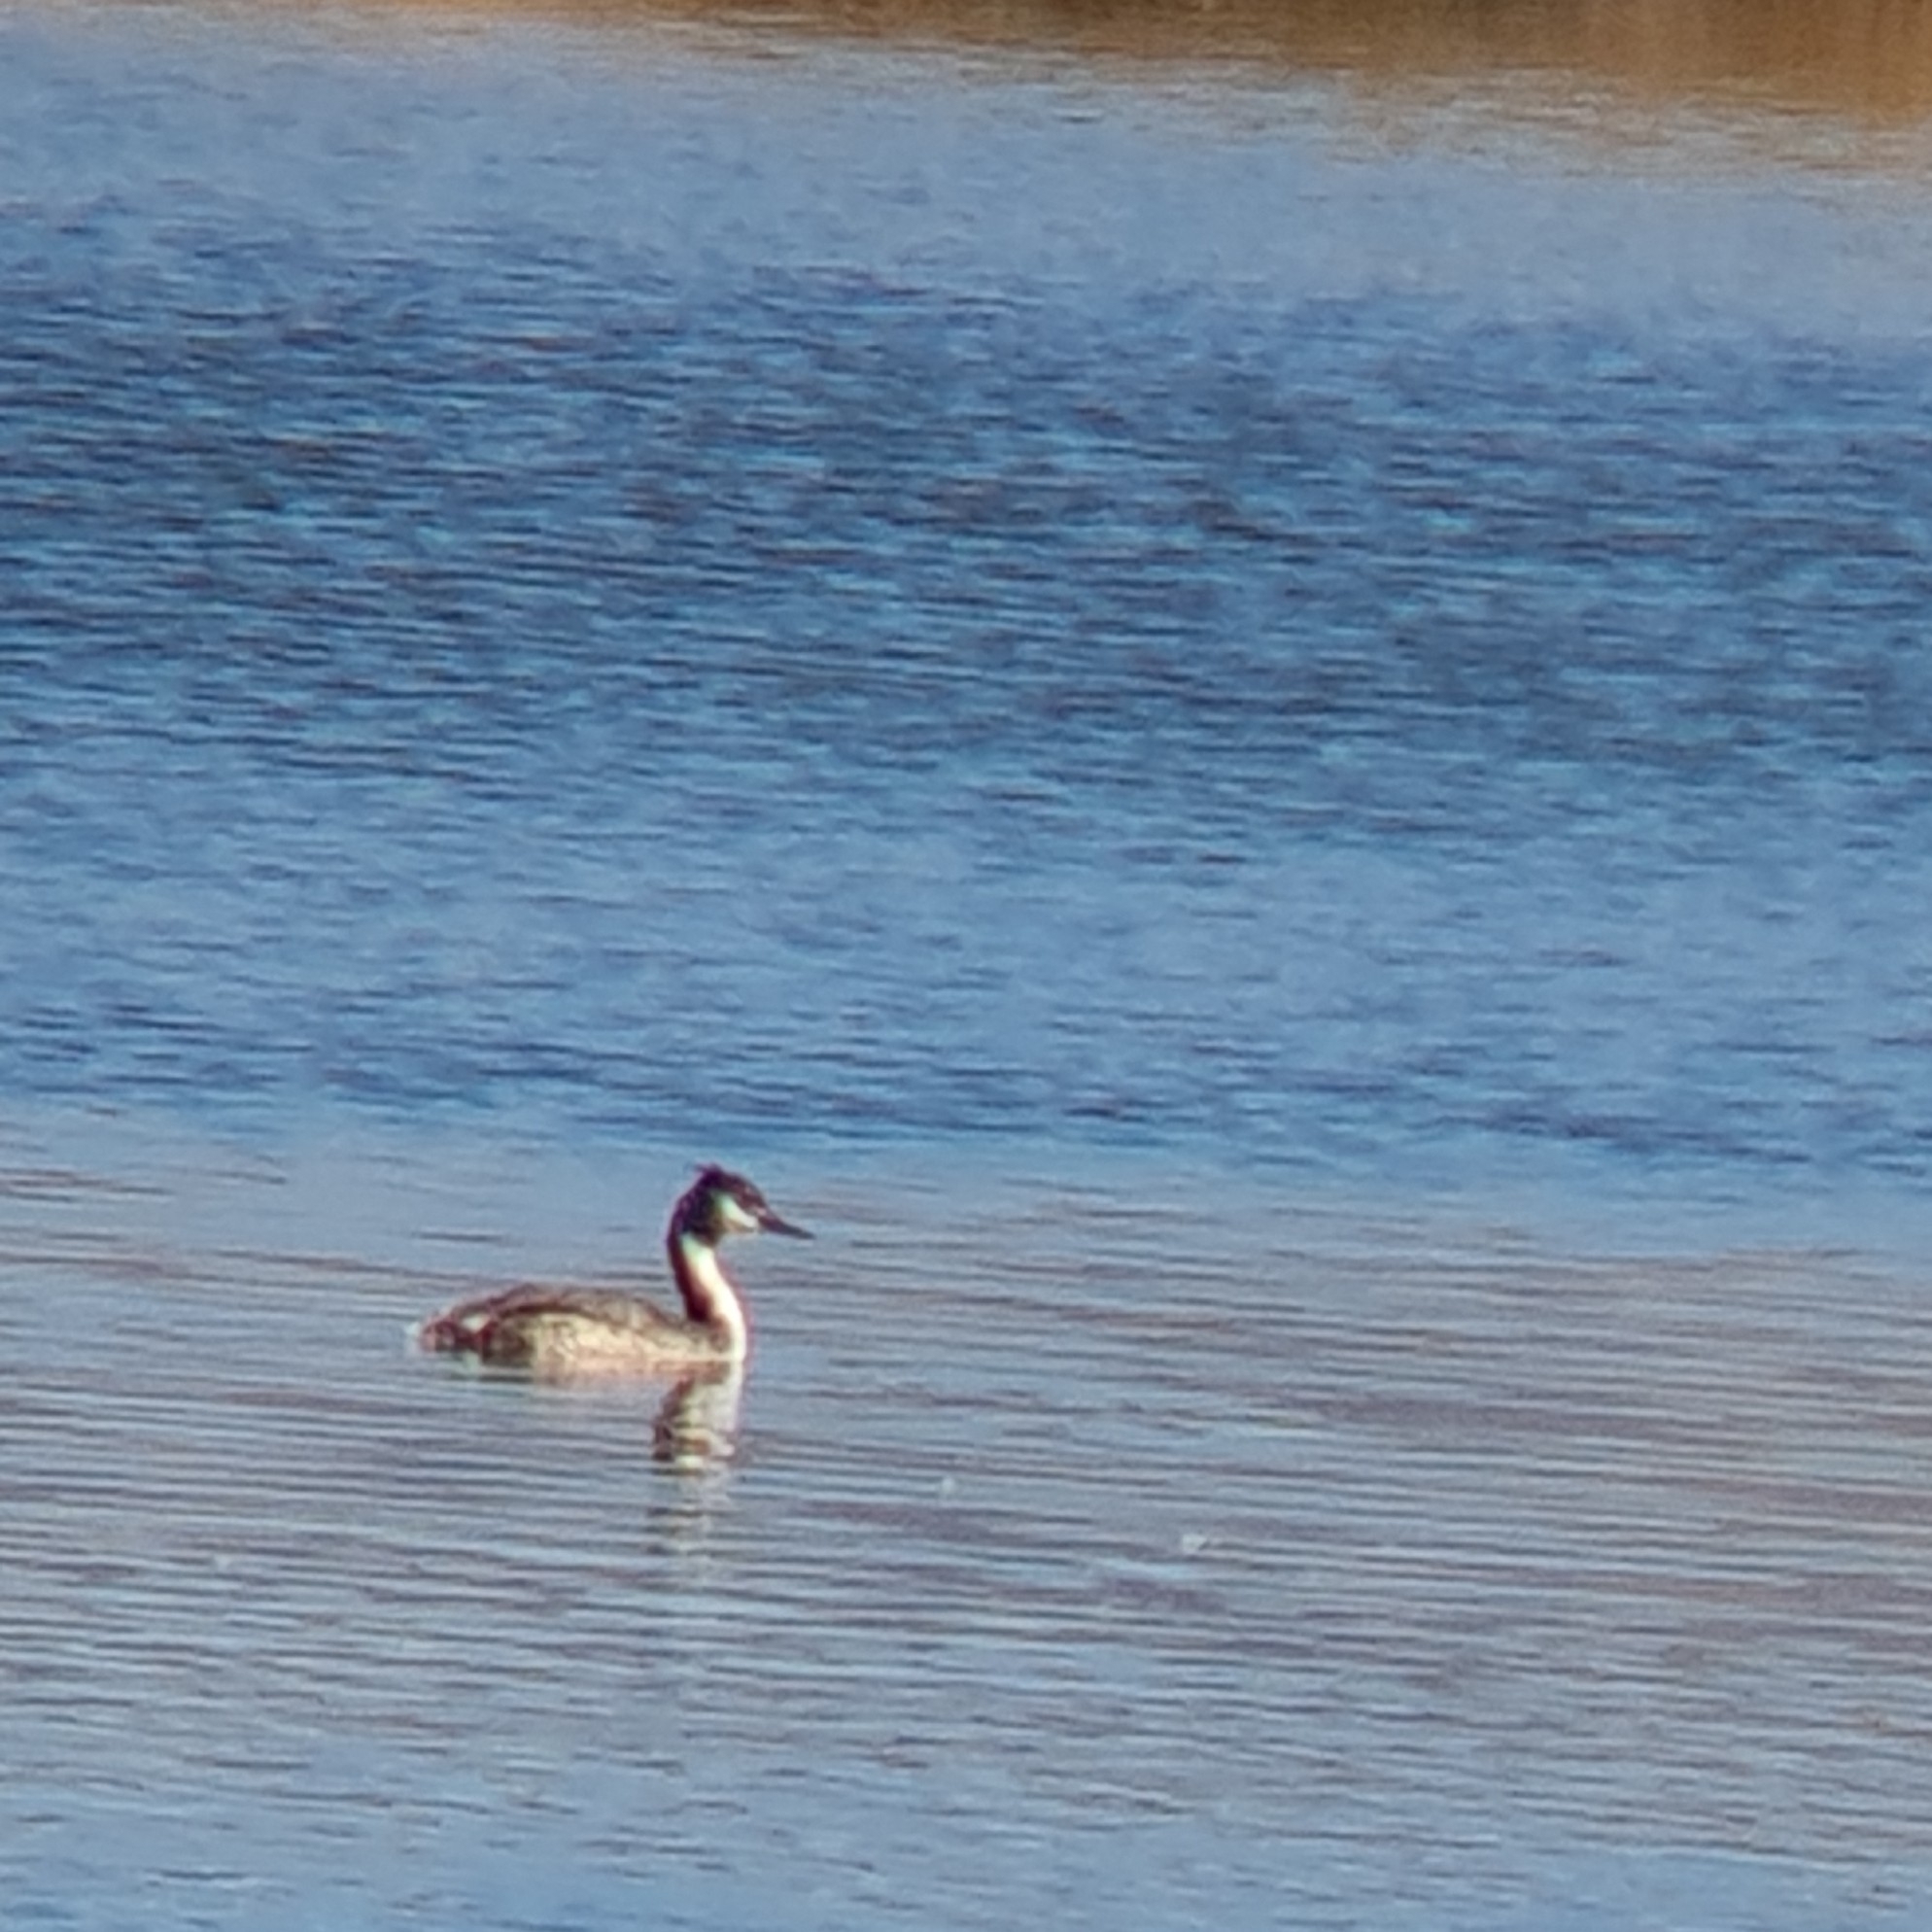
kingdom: Animalia
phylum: Chordata
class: Aves
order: Podicipediformes
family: Podicipedidae
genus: Podiceps
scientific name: Podiceps cristatus
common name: Great crested grebe
